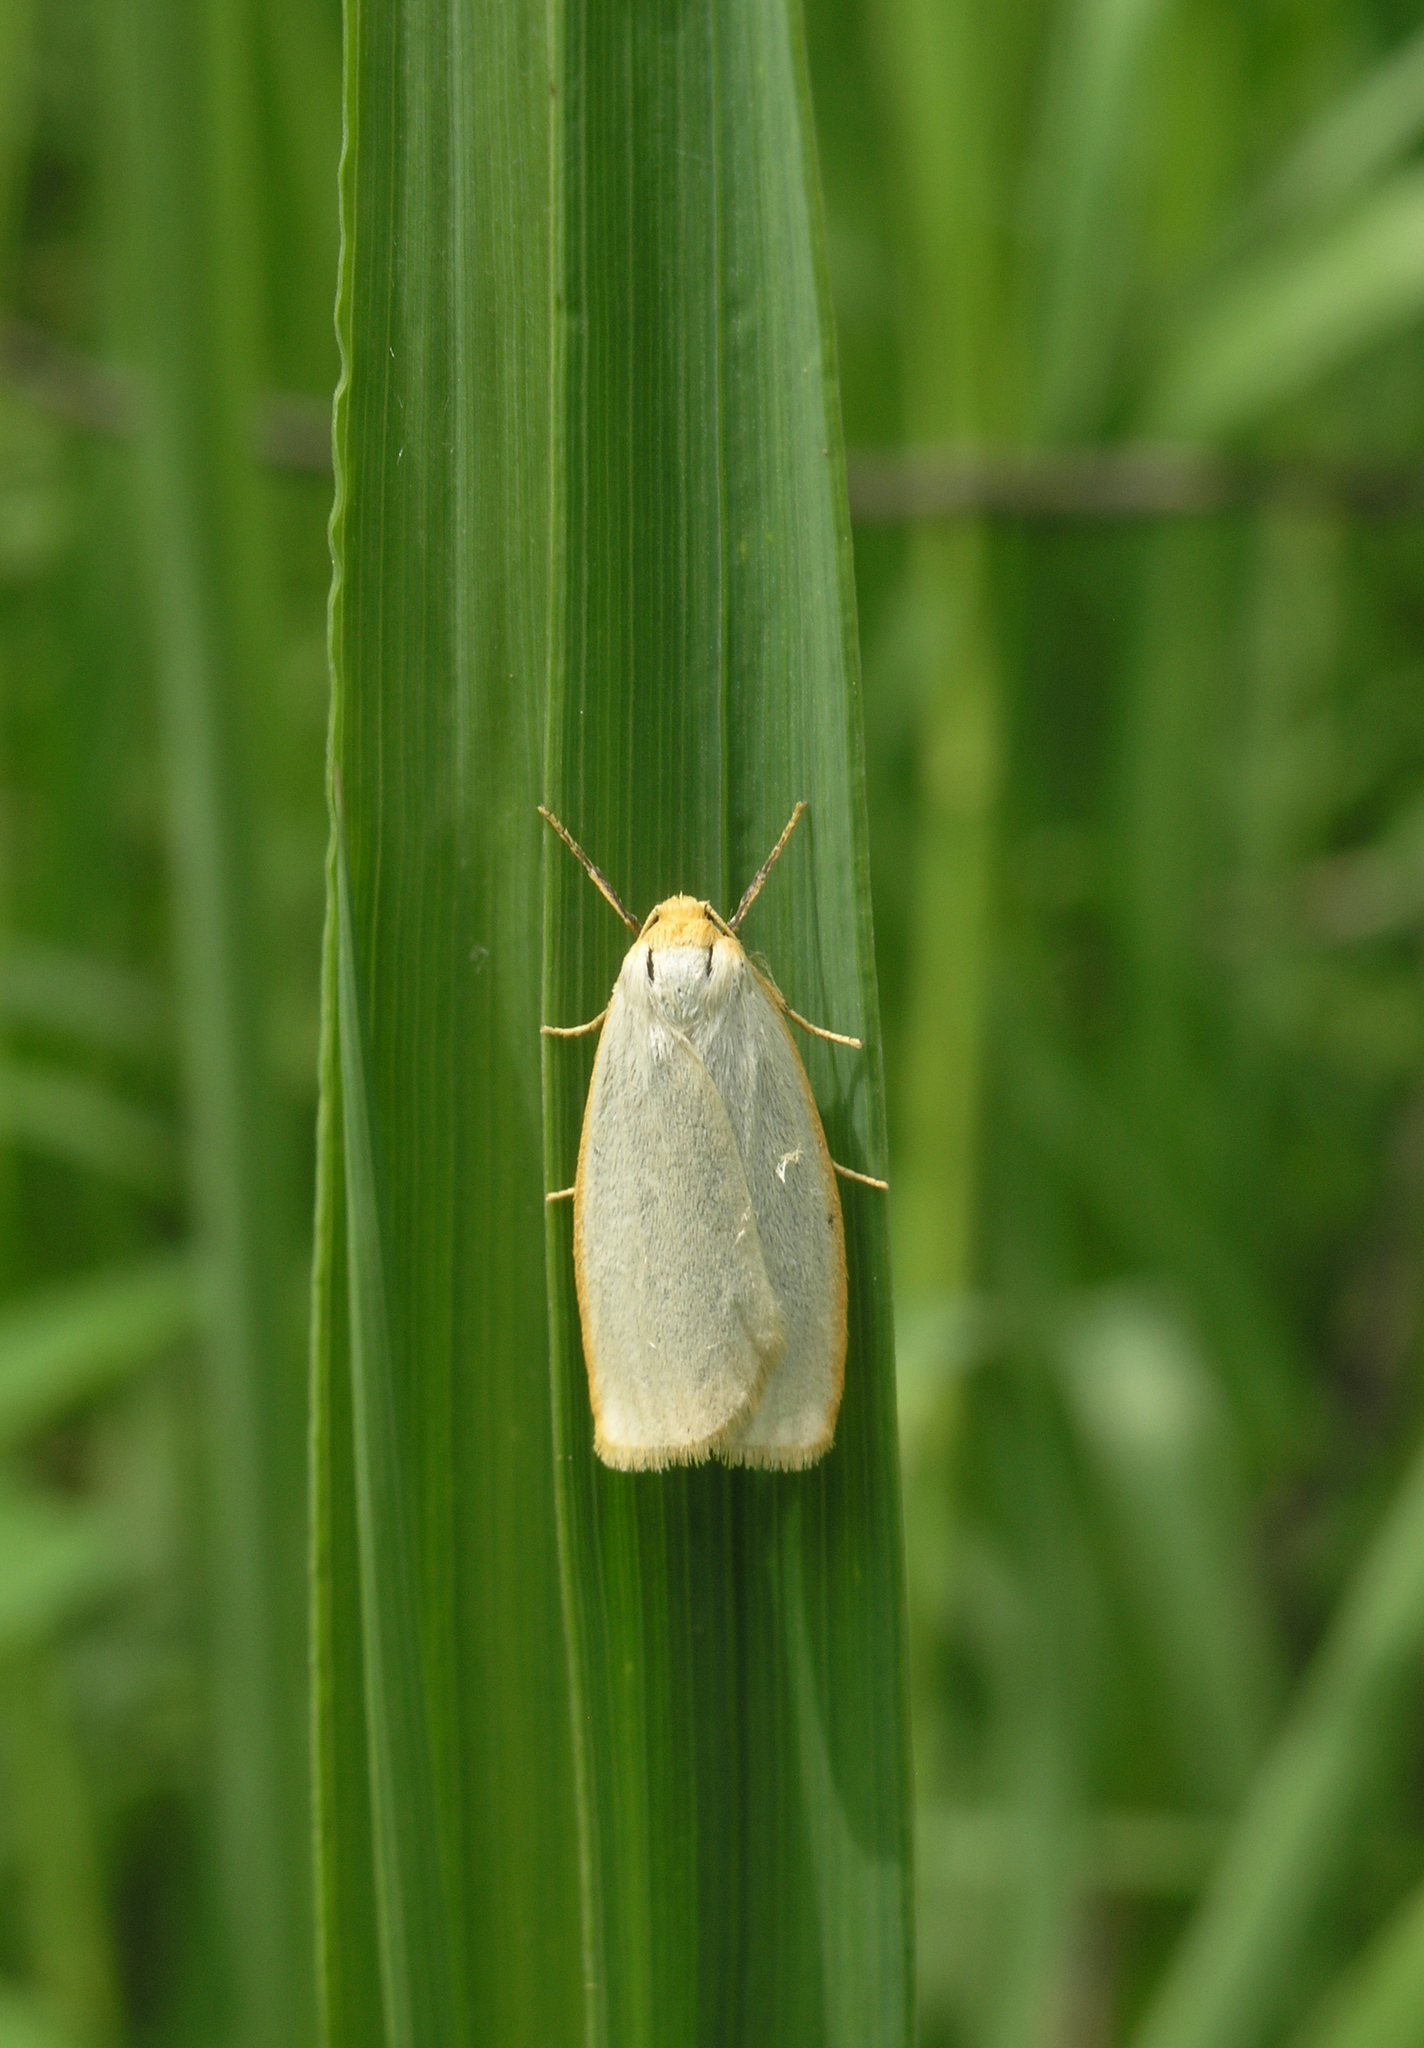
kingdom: Animalia
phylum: Arthropoda
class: Insecta
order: Lepidoptera
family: Erebidae
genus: Cybosia
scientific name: Cybosia mesomella
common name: Four-dotted footman
